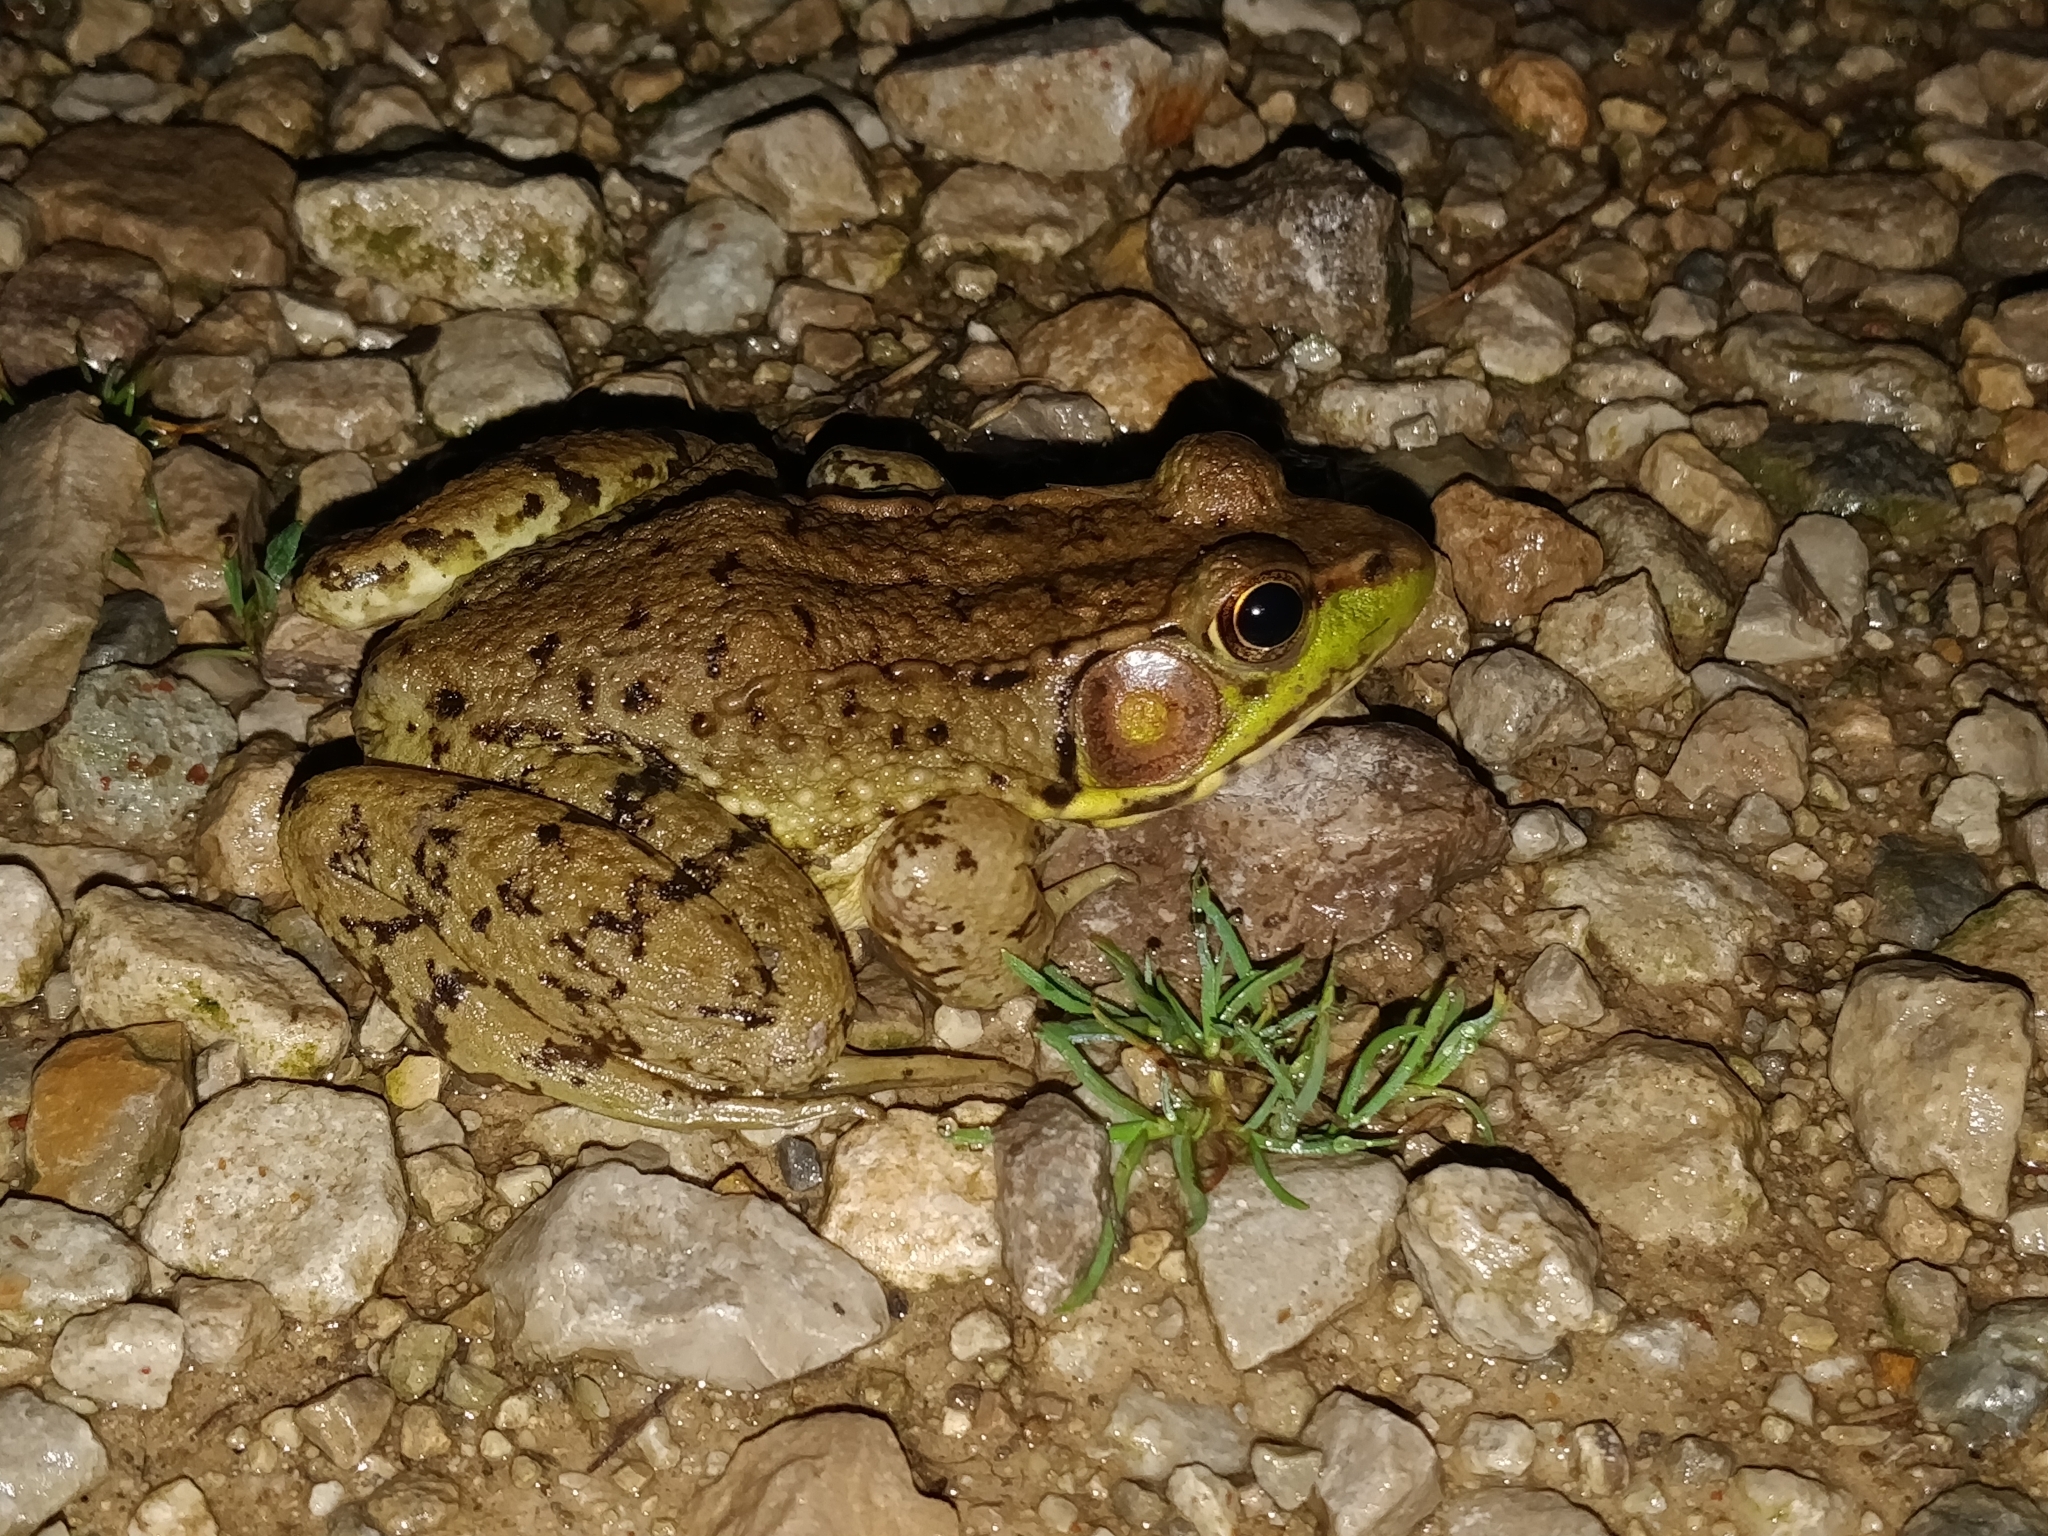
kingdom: Animalia
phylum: Chordata
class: Amphibia
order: Anura
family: Ranidae
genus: Lithobates
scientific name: Lithobates clamitans
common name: Green frog
